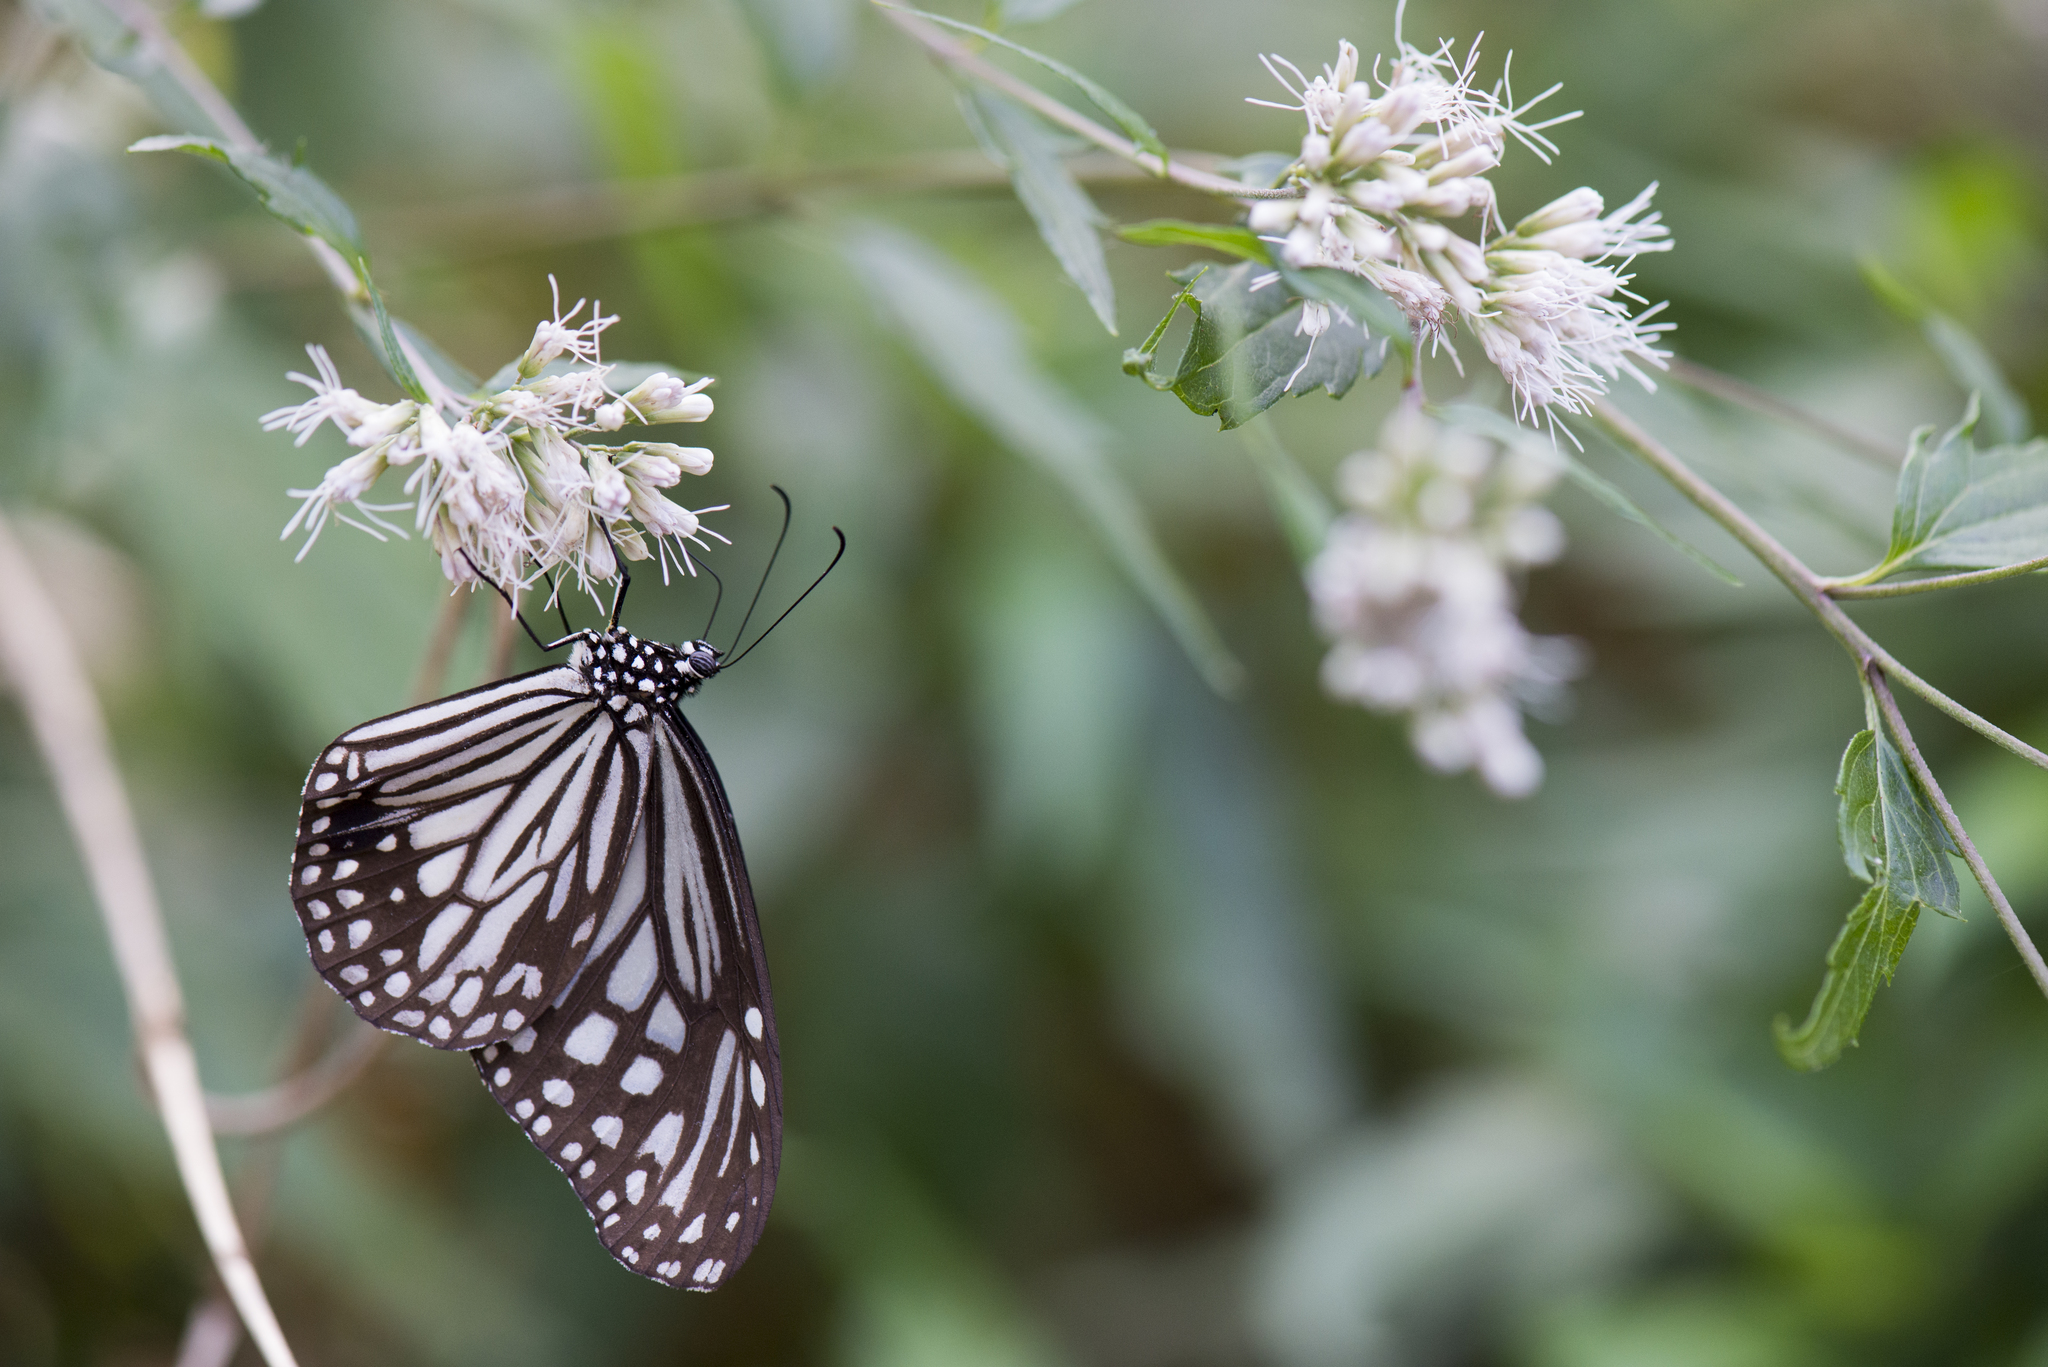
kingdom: Animalia
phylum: Arthropoda
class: Insecta
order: Lepidoptera
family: Nymphalidae
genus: Parantica
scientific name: Parantica aglea
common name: Glassy tiger
